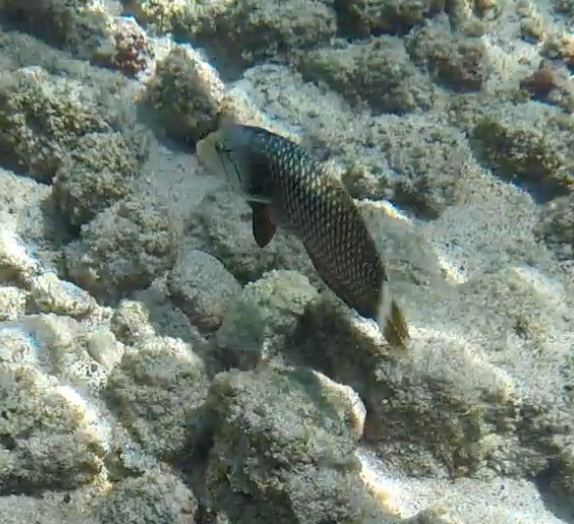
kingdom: Animalia
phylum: Chordata
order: Perciformes
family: Labridae
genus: Novaculichthys
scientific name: Novaculichthys taeniourus
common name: Rockmover wrasse
